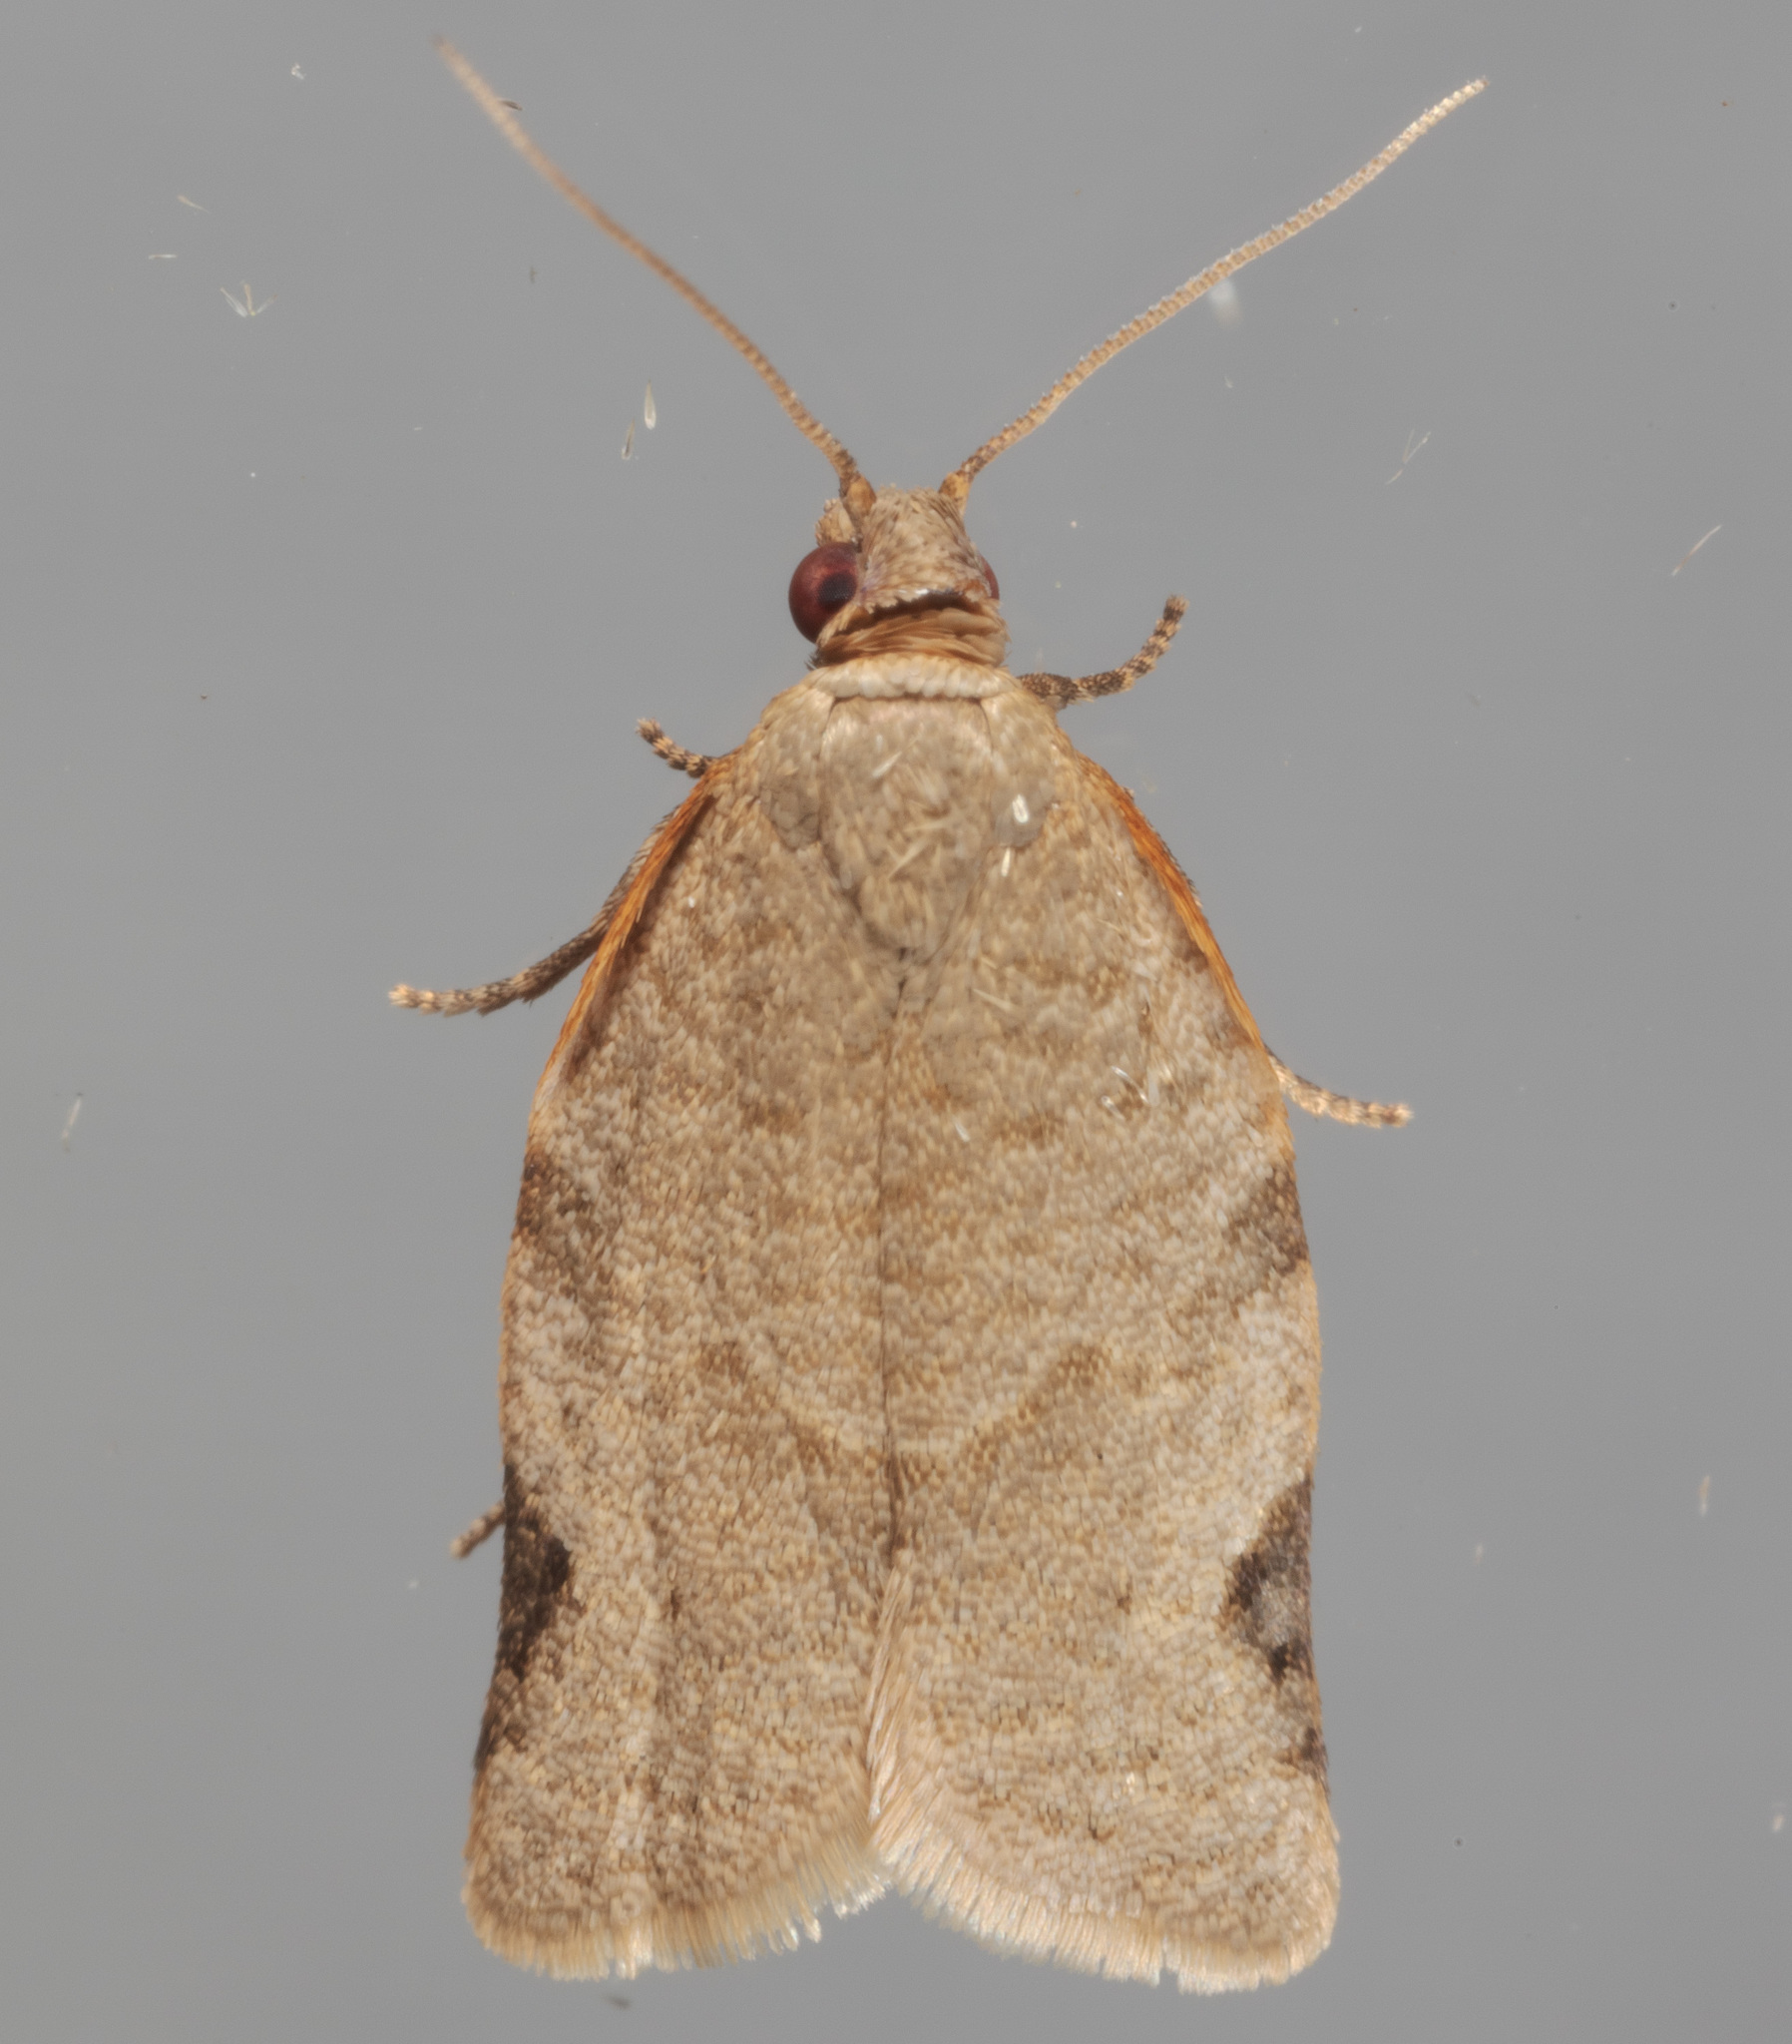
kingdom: Animalia
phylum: Arthropoda
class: Insecta
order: Lepidoptera
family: Tortricidae
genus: Clepsis
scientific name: Clepsis virescana
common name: Greenish apple moth
